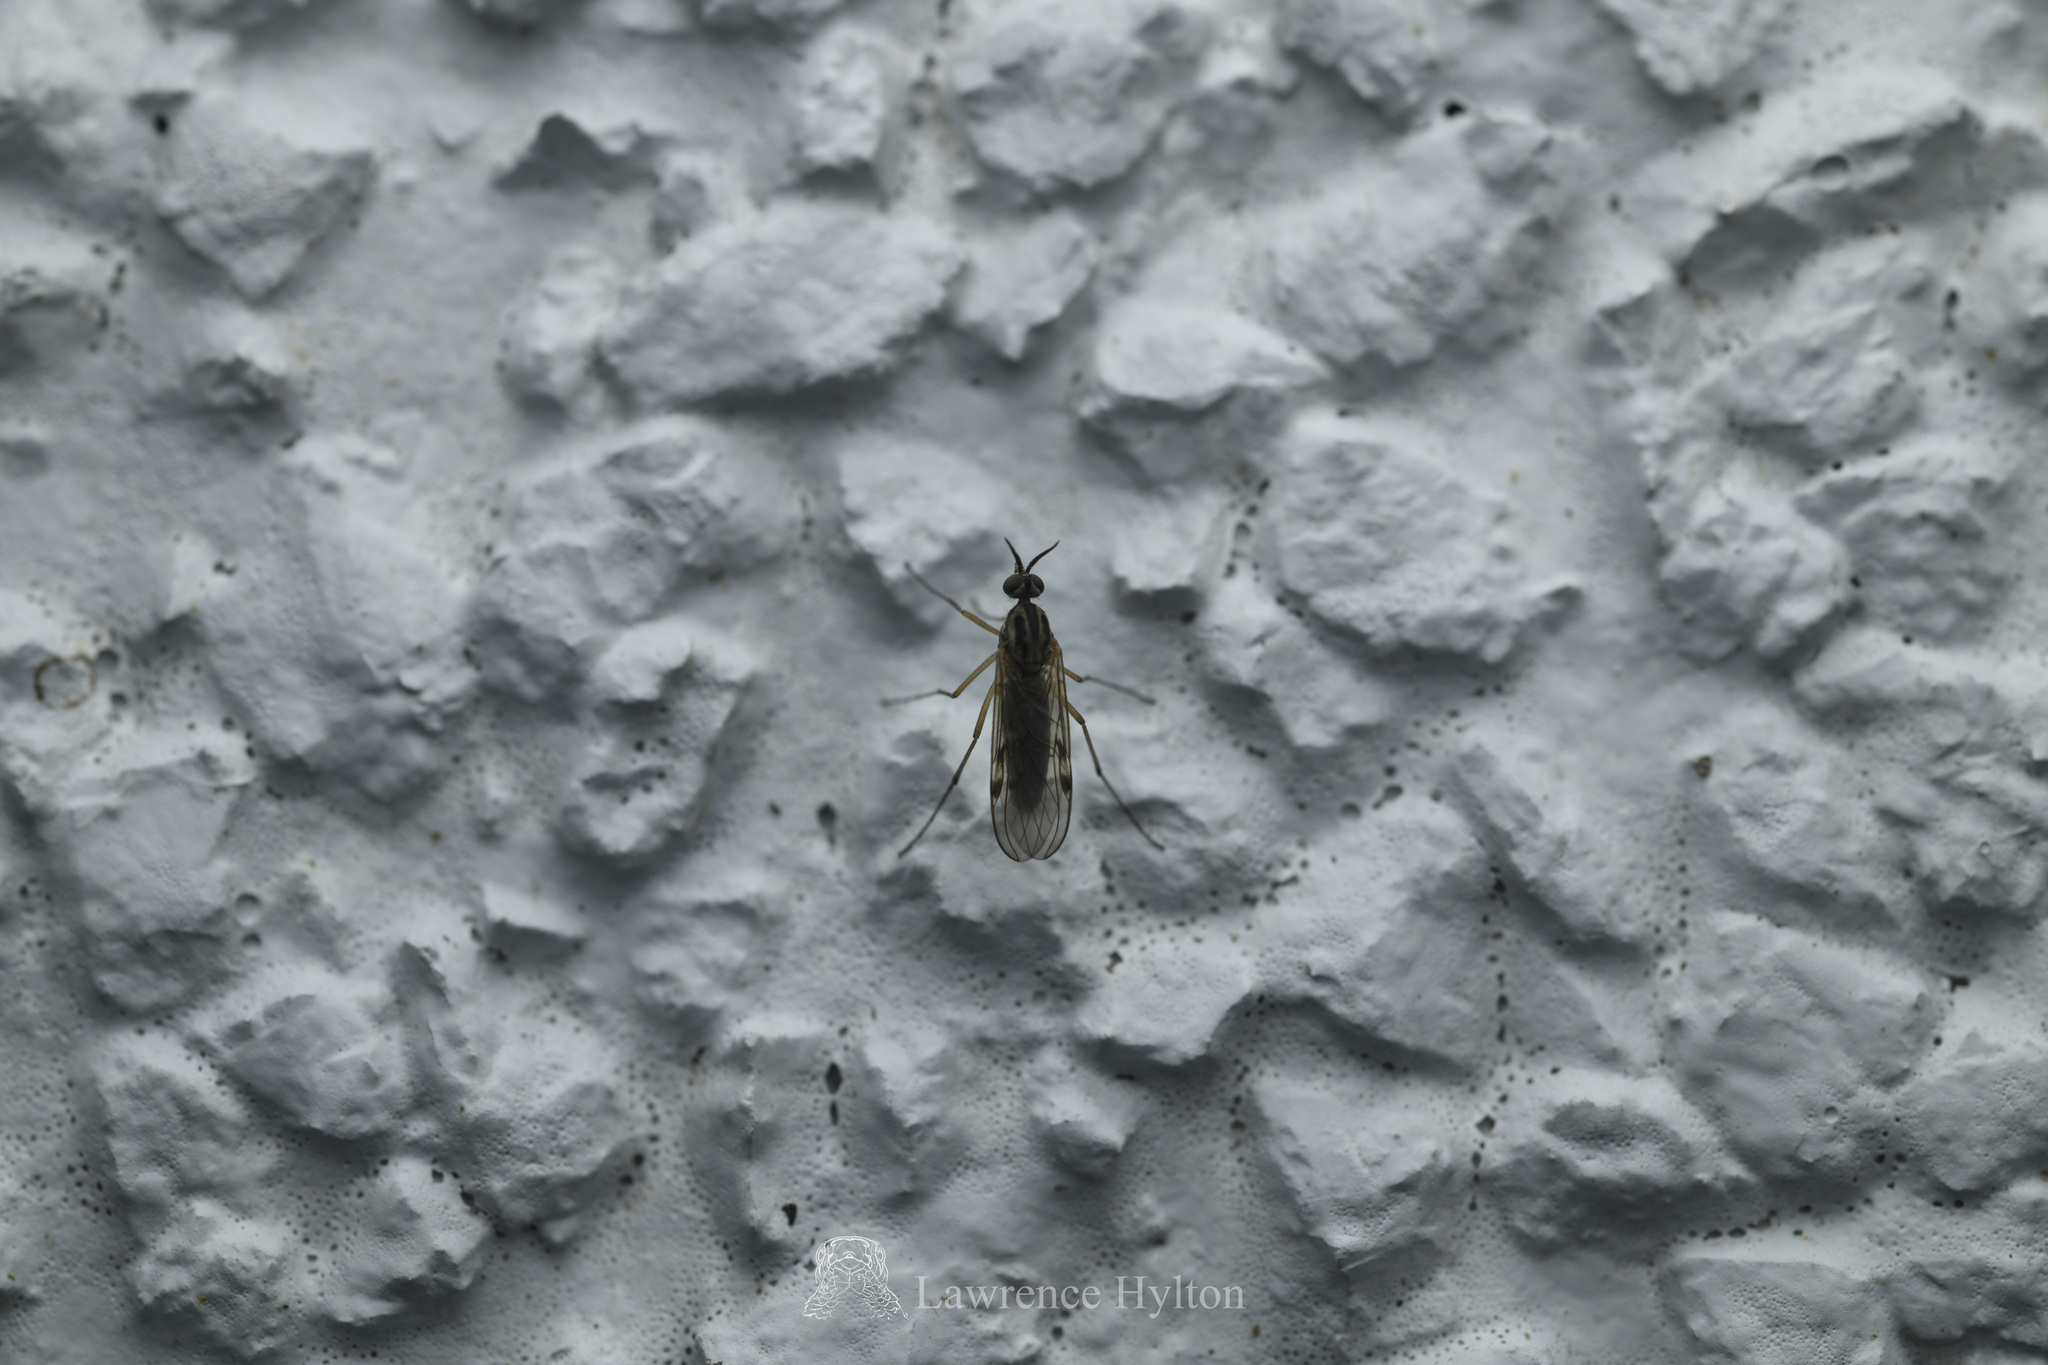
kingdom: Animalia
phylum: Arthropoda
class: Insecta
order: Diptera
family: Anisopodidae
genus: Sylvicola
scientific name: Sylvicola punctatus
